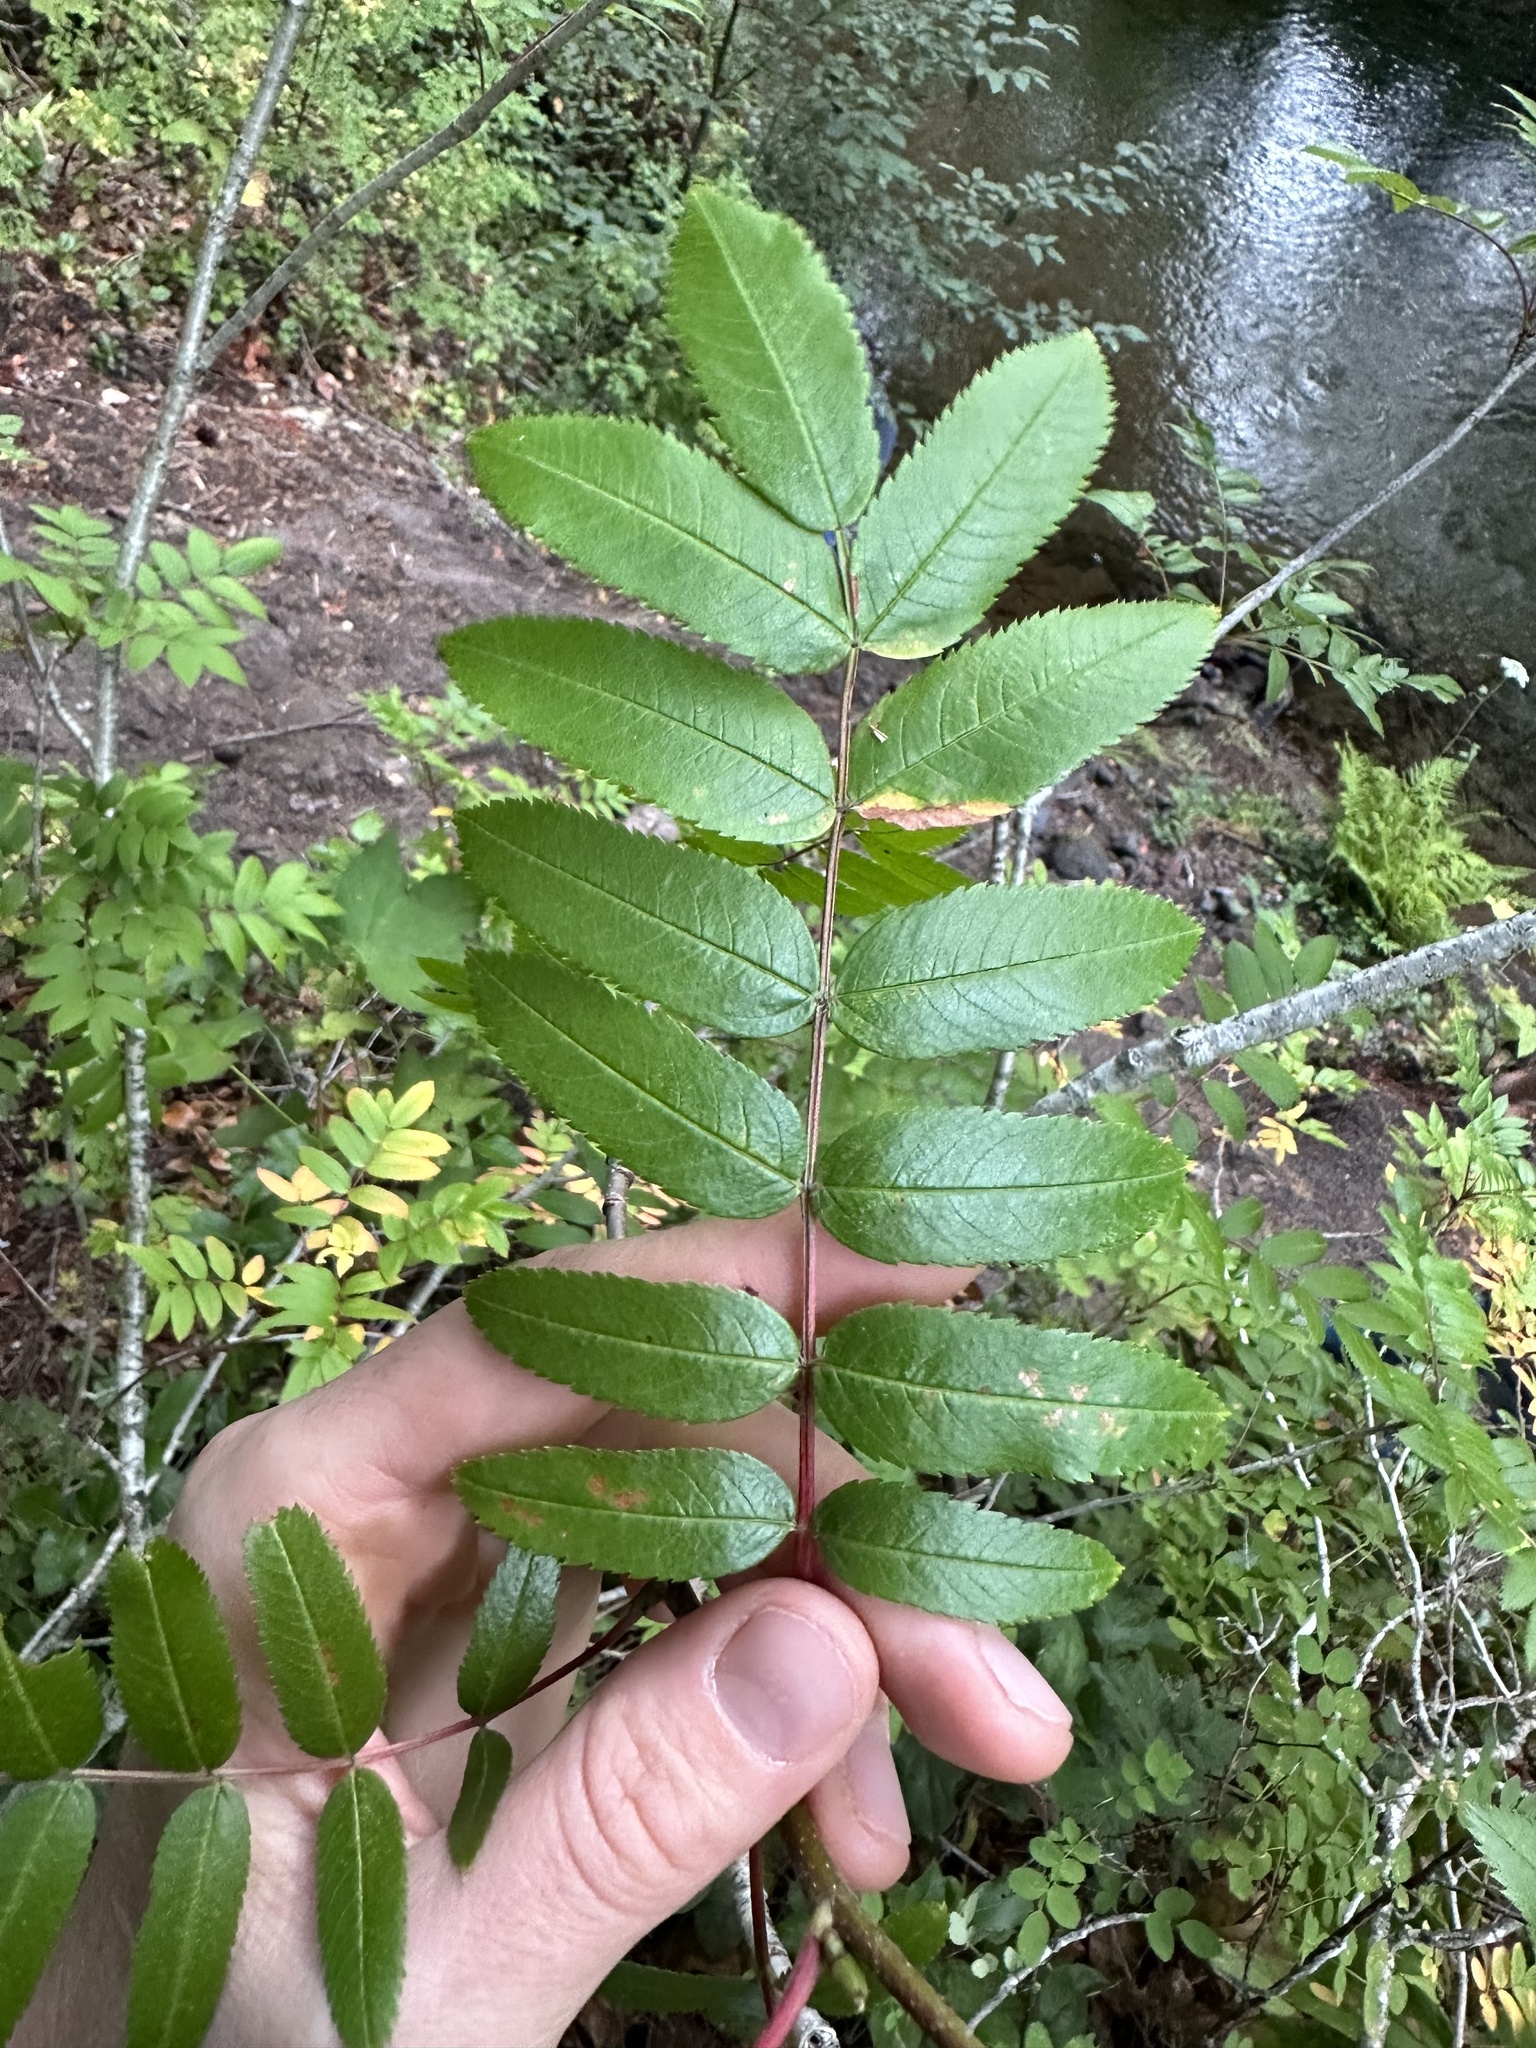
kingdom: Plantae
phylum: Tracheophyta
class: Magnoliopsida
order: Rosales
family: Rosaceae
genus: Sorbus
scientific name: Sorbus scopulina
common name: Greene's mountain-ash
